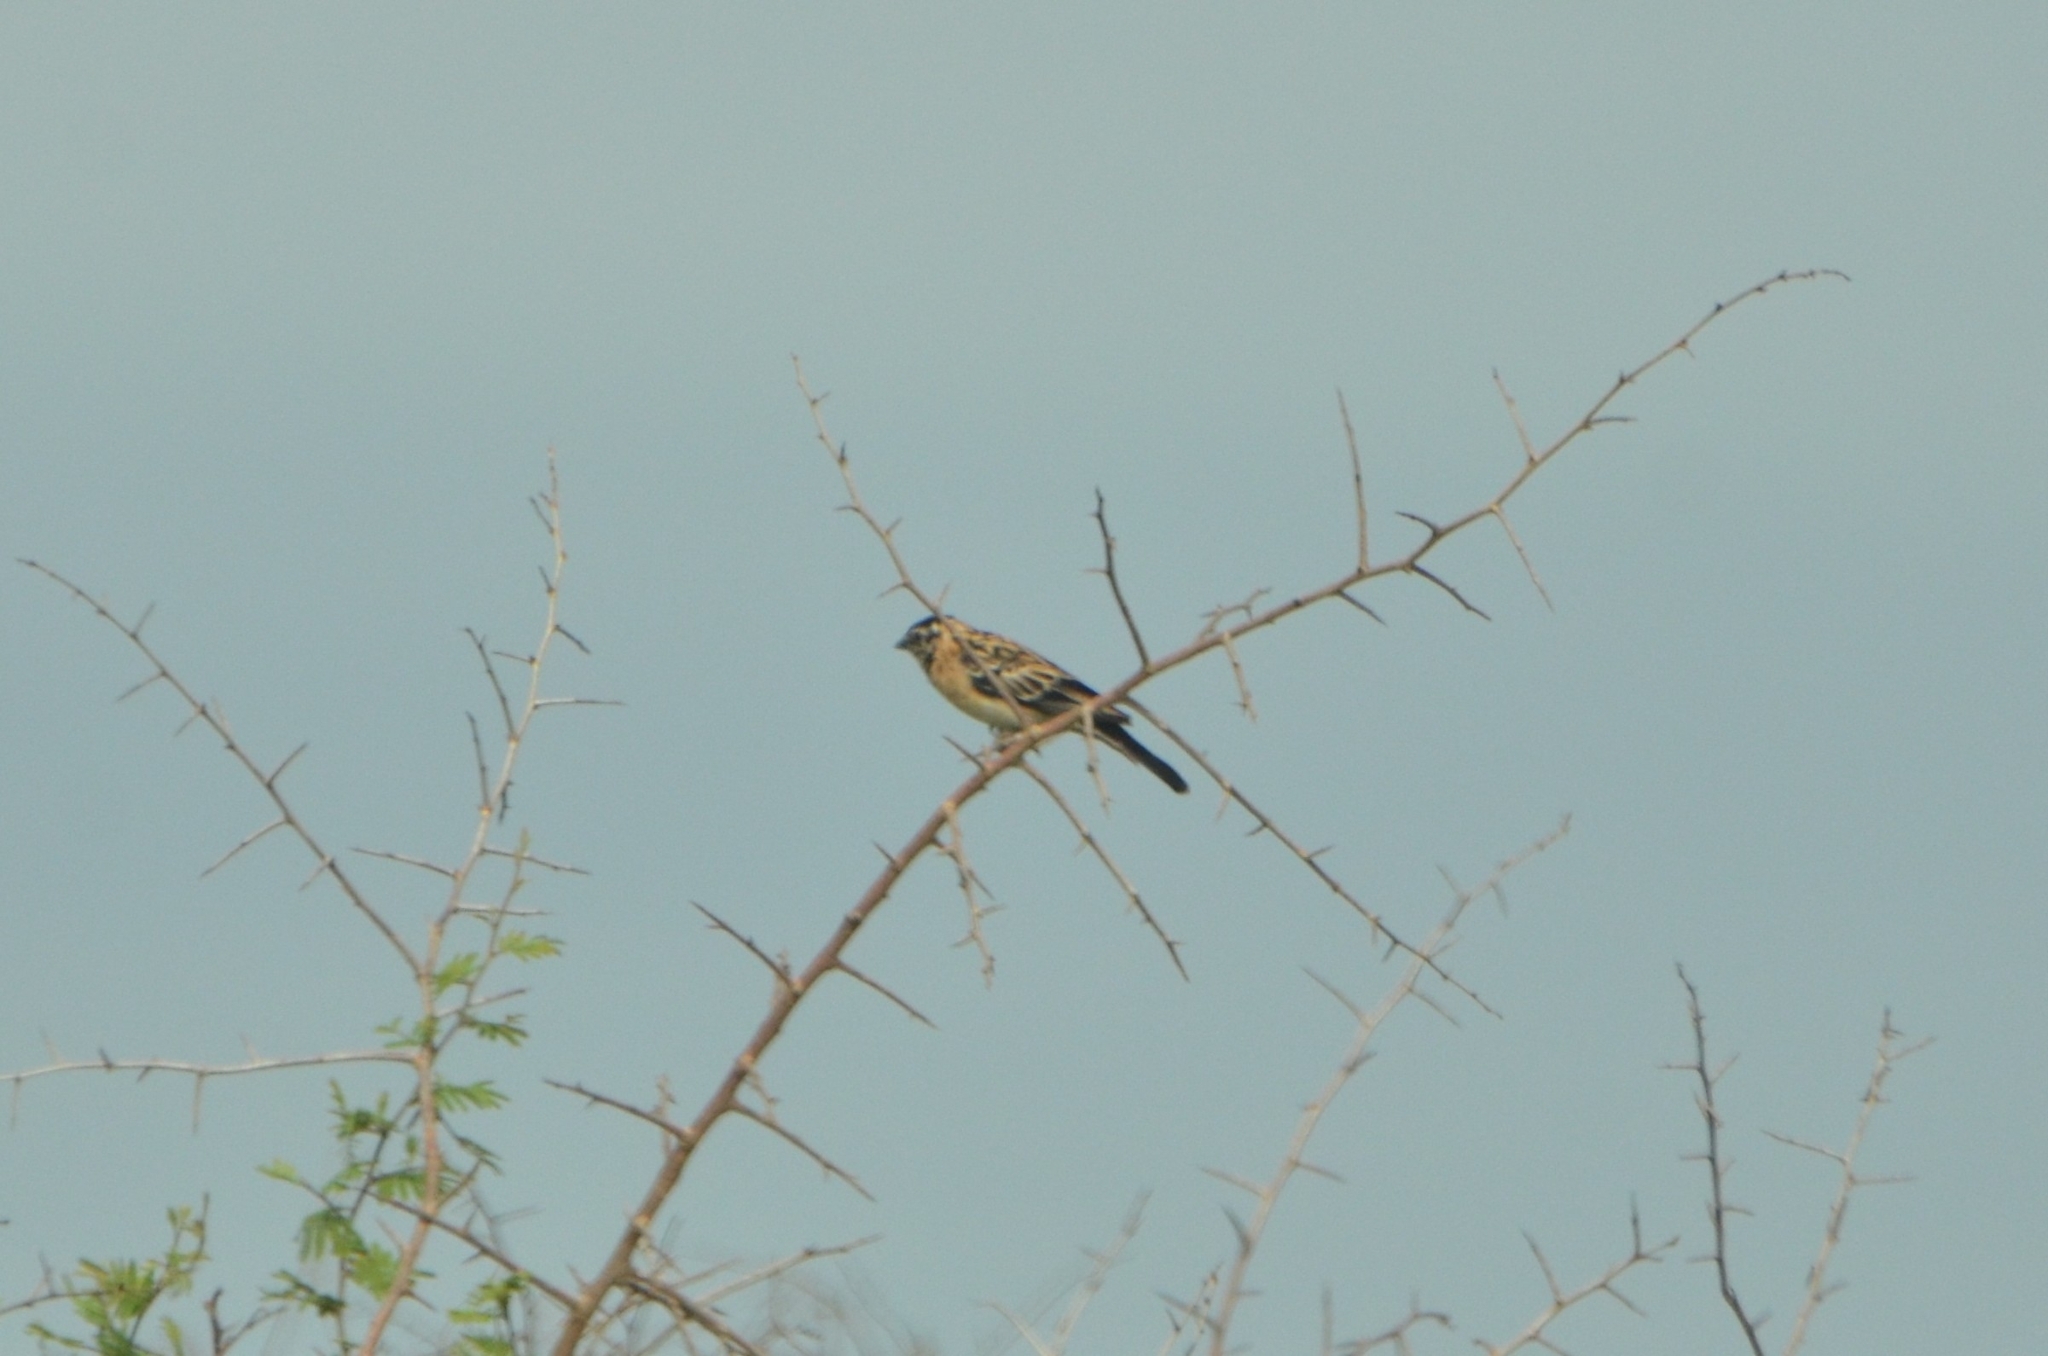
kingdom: Animalia
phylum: Chordata
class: Aves
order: Passeriformes
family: Viduidae
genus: Vidua
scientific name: Vidua paradisaea
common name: Long-tailed paradise whydah
